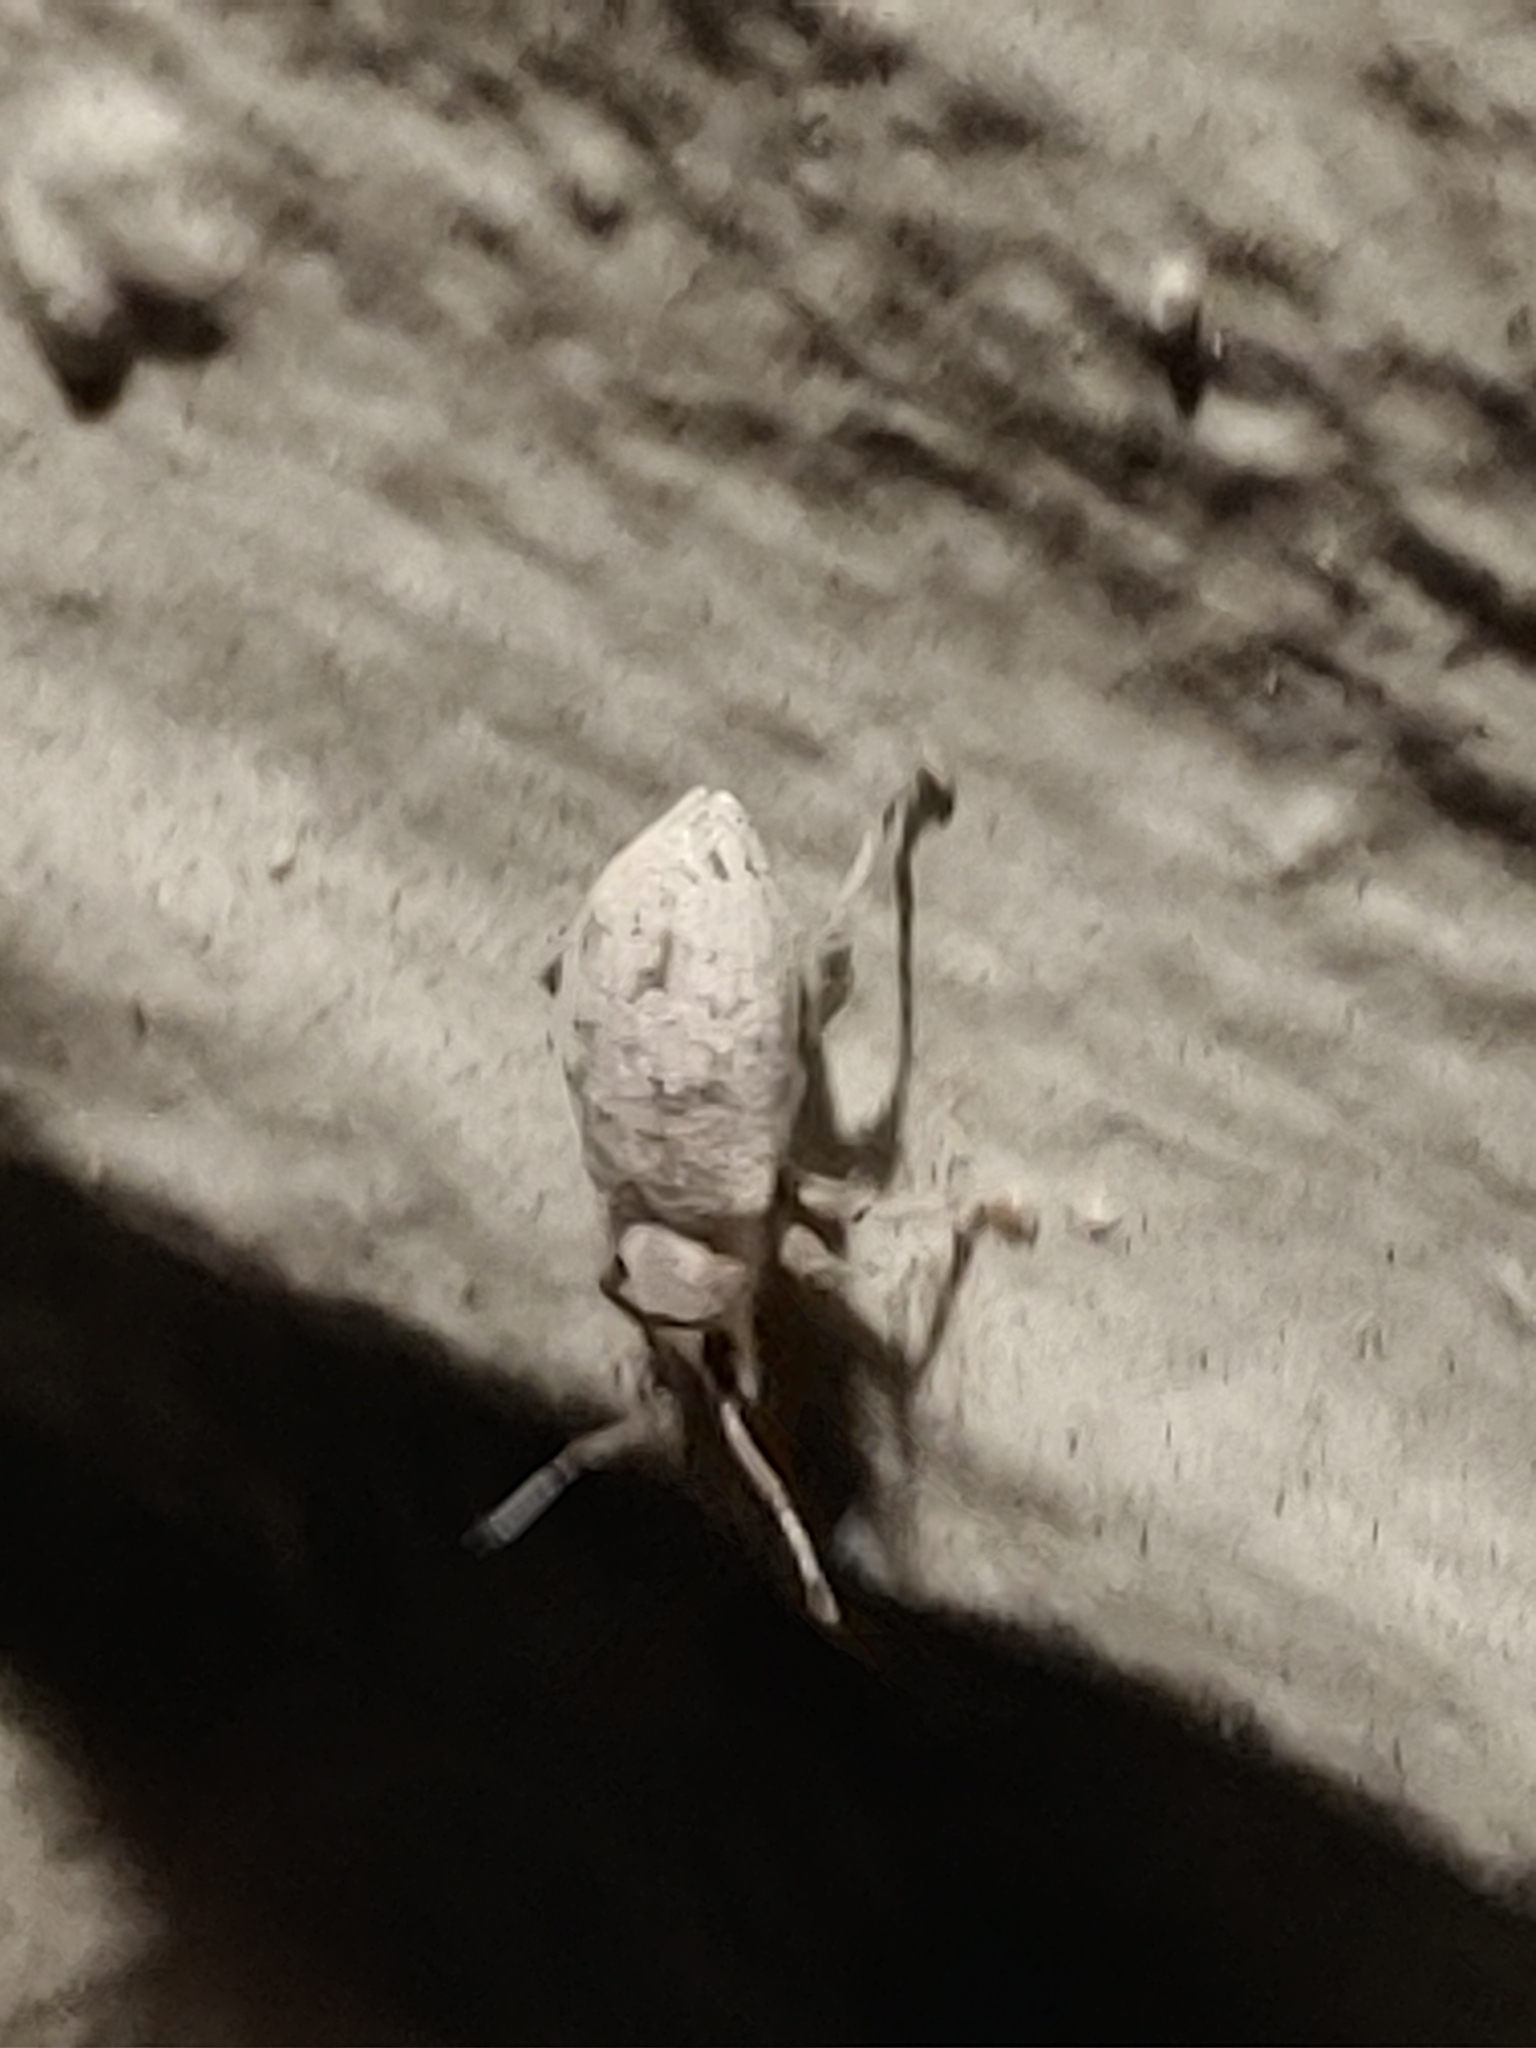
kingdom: Animalia
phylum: Arthropoda
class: Insecta
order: Coleoptera
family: Curculionidae
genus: Myllocerus
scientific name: Myllocerus undecimpustulatus
